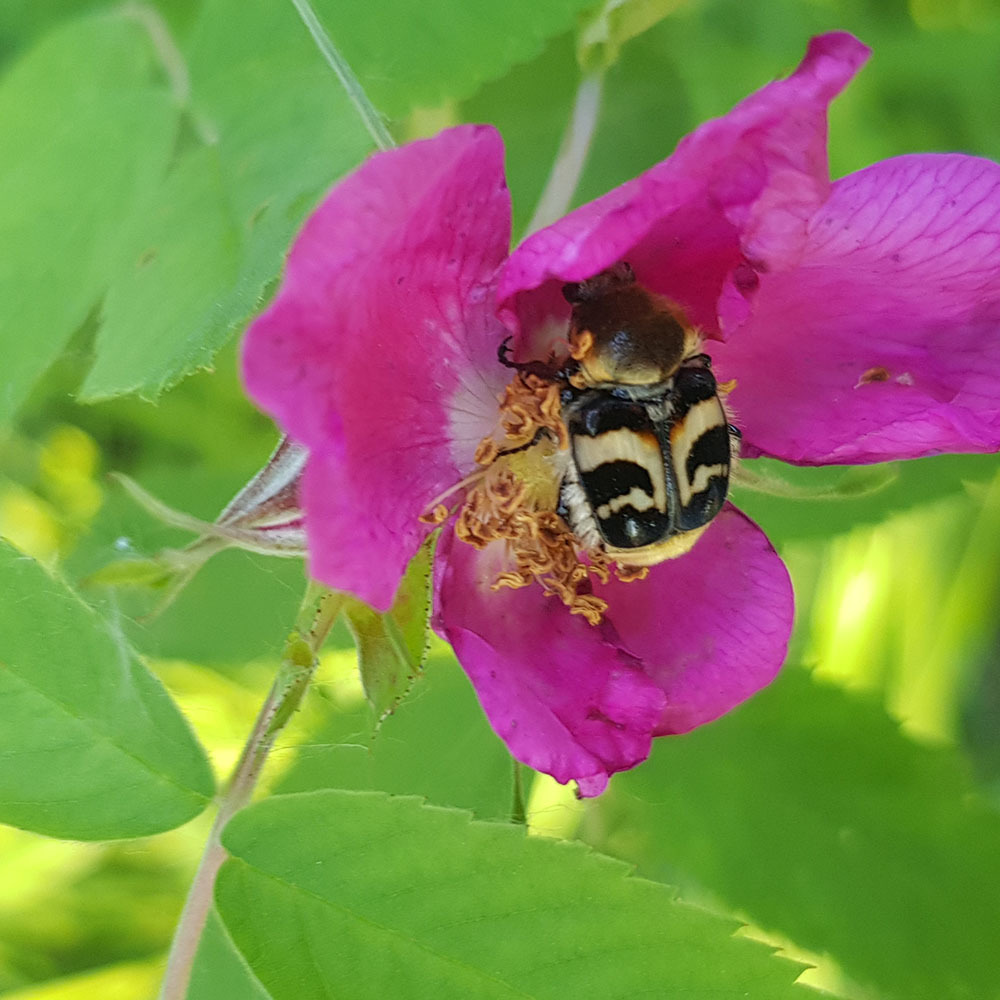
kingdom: Animalia
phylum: Arthropoda
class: Insecta
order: Coleoptera
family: Scarabaeidae
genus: Trichius
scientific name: Trichius fasciatus
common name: Bee beetle
